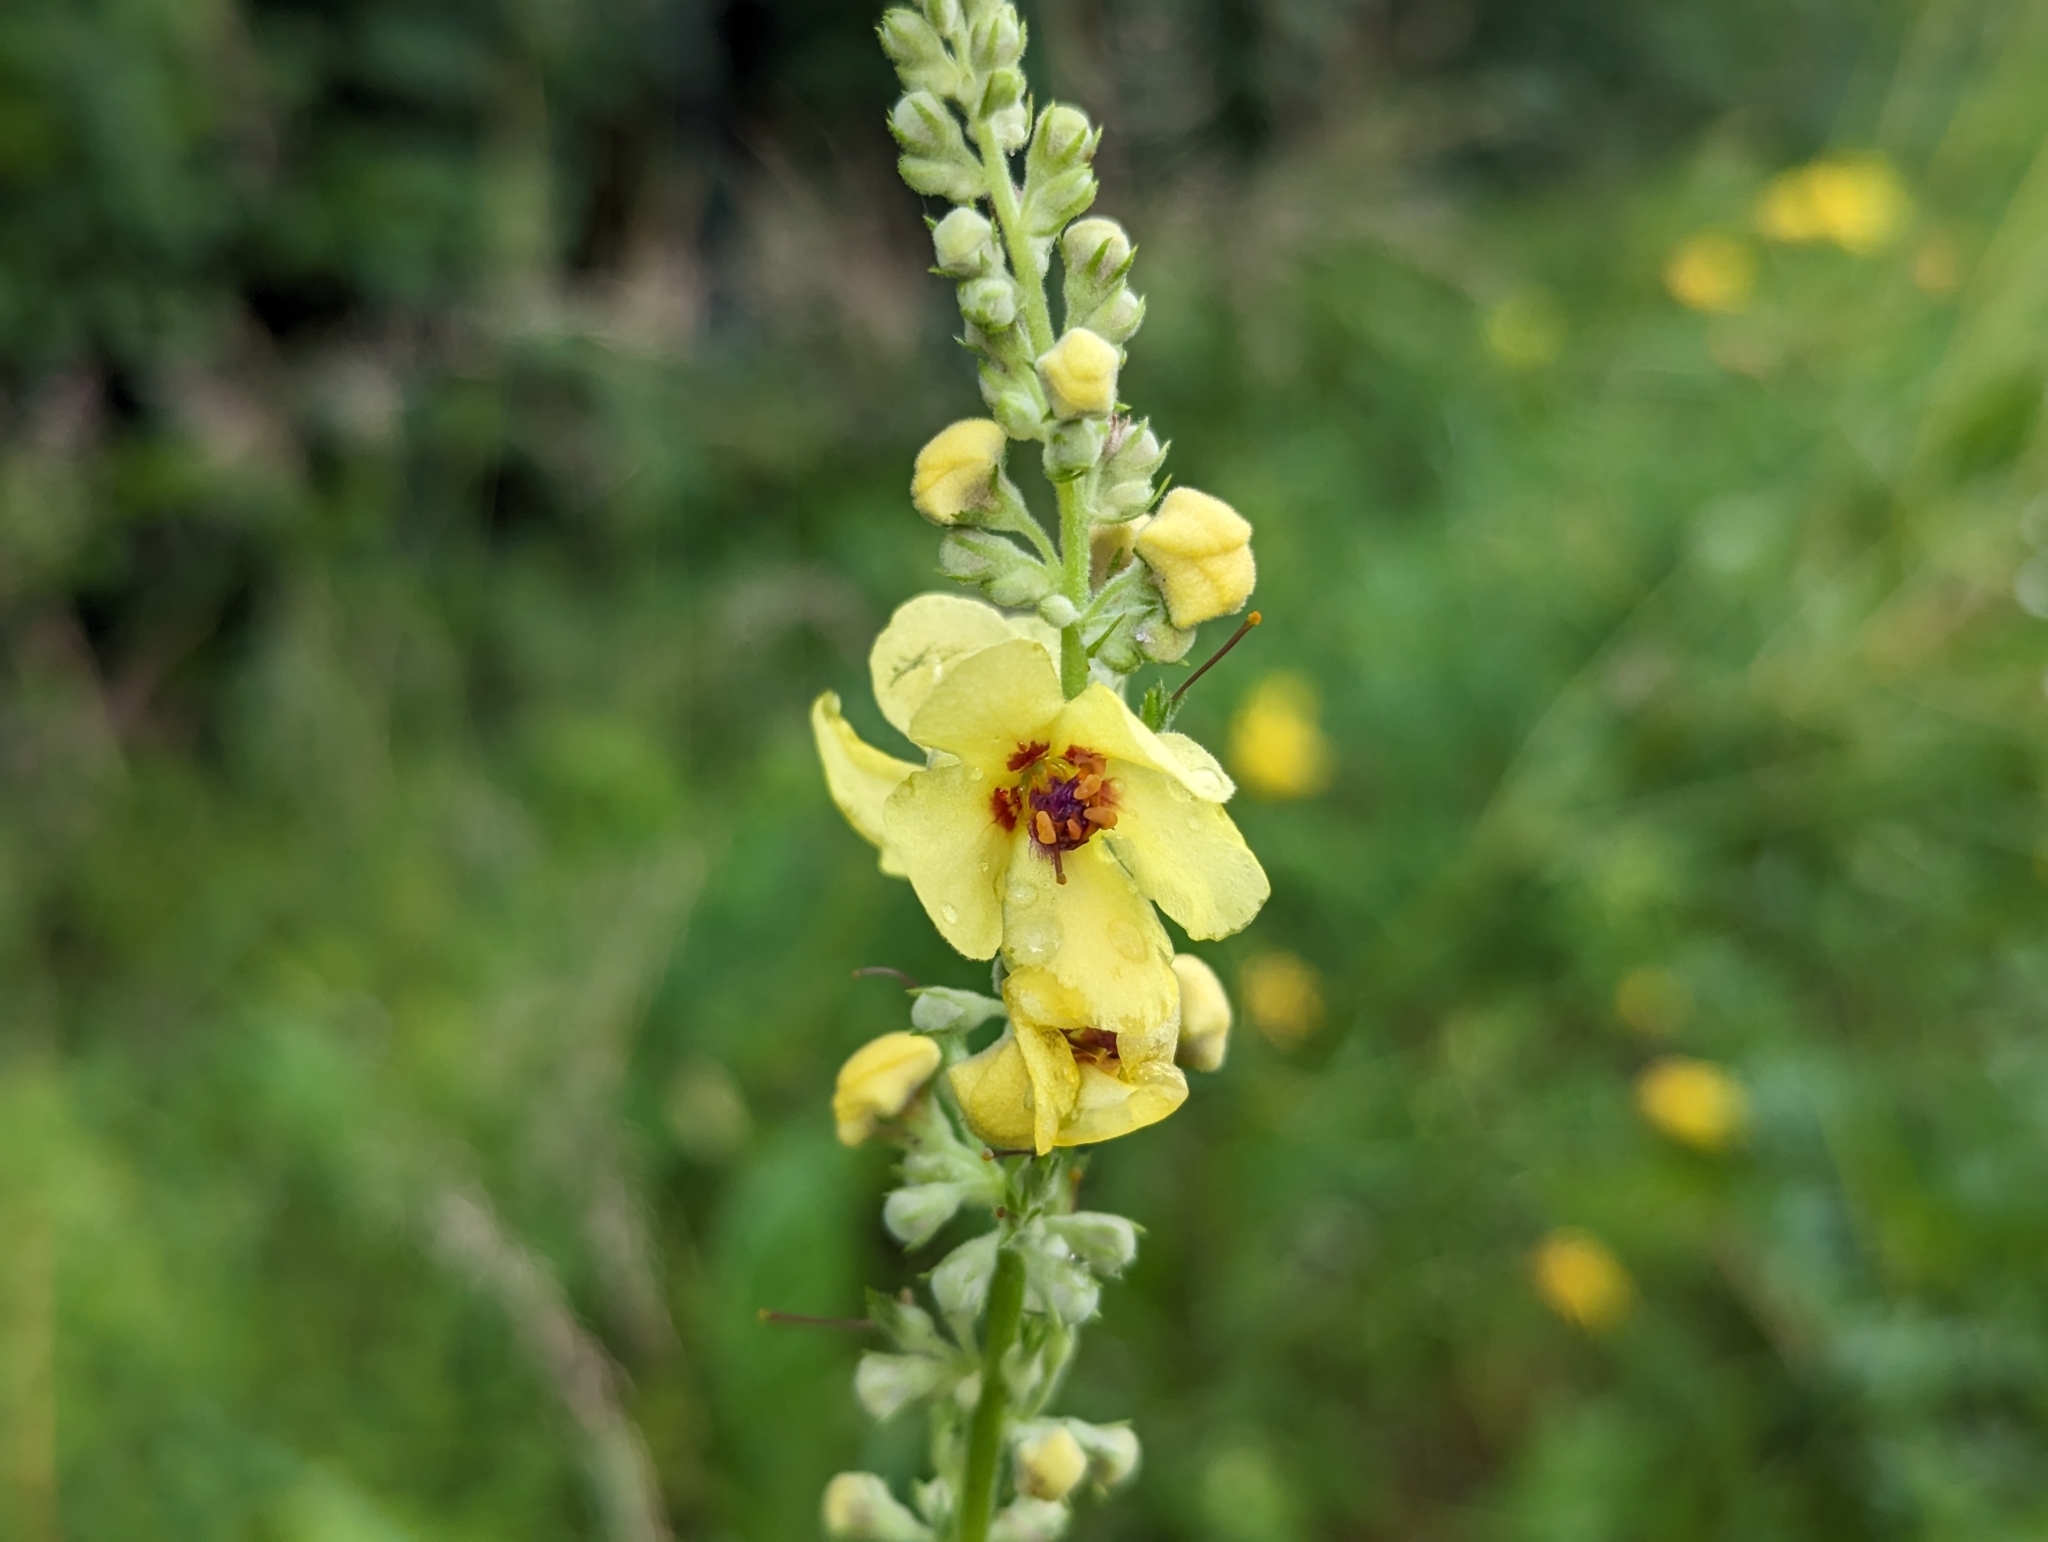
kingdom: Plantae
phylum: Tracheophyta
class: Magnoliopsida
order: Lamiales
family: Scrophulariaceae
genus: Verbascum
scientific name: Verbascum nigrum
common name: Dark mullein
